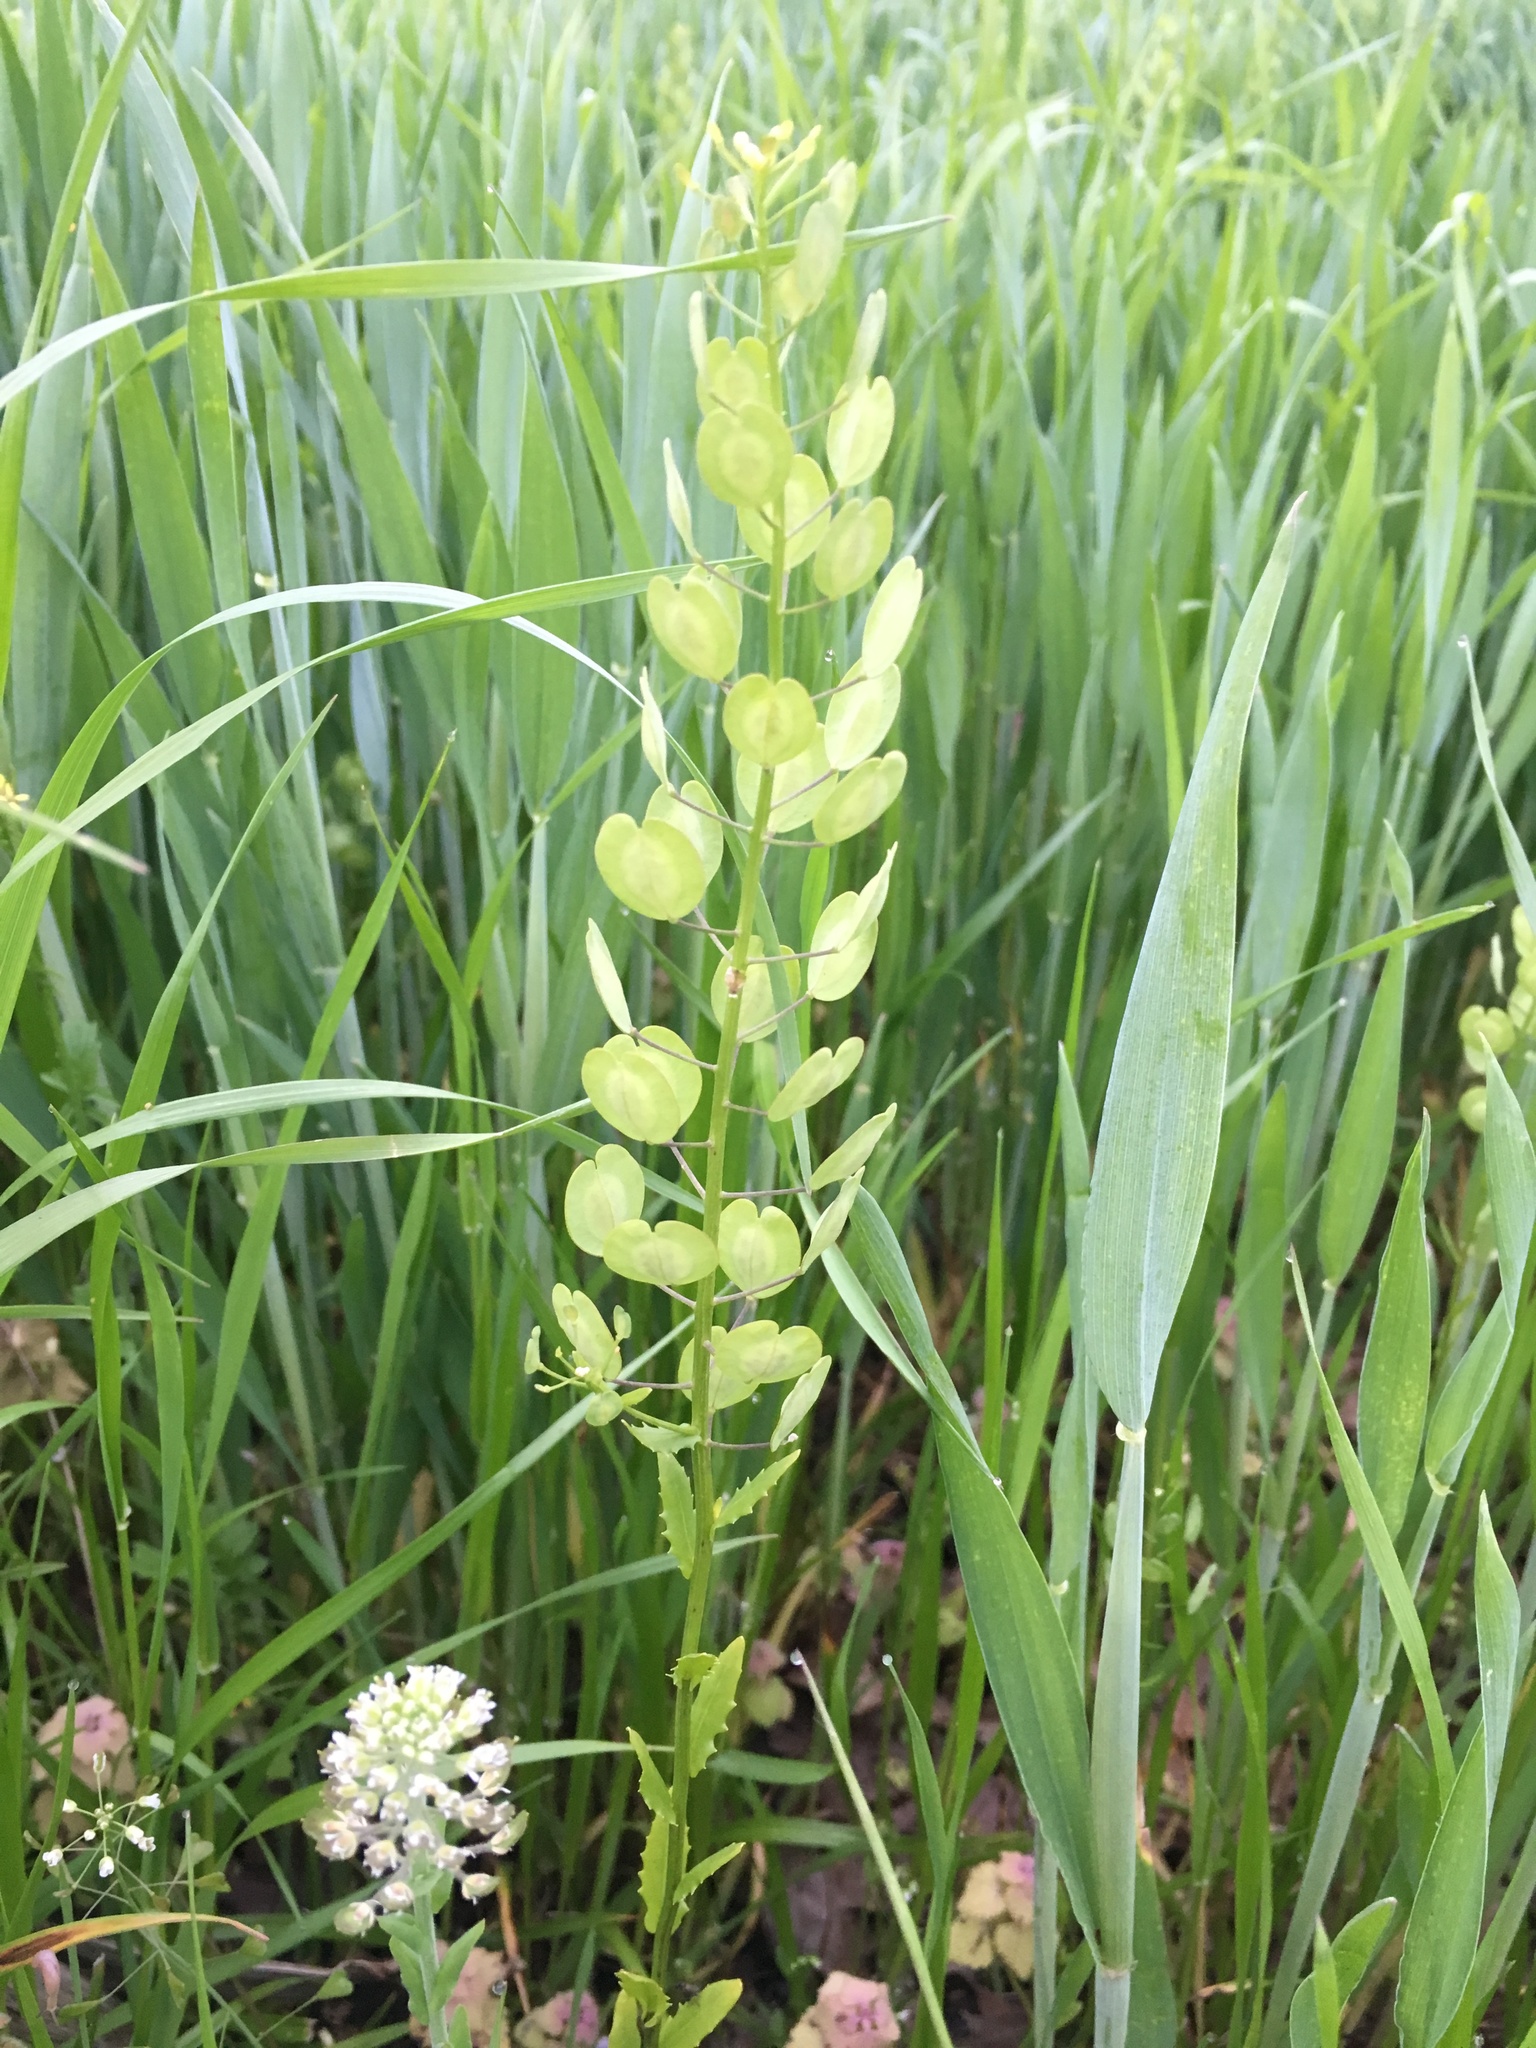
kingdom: Plantae
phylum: Tracheophyta
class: Magnoliopsida
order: Brassicales
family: Brassicaceae
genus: Thlaspi
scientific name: Thlaspi arvense
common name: Field pennycress
